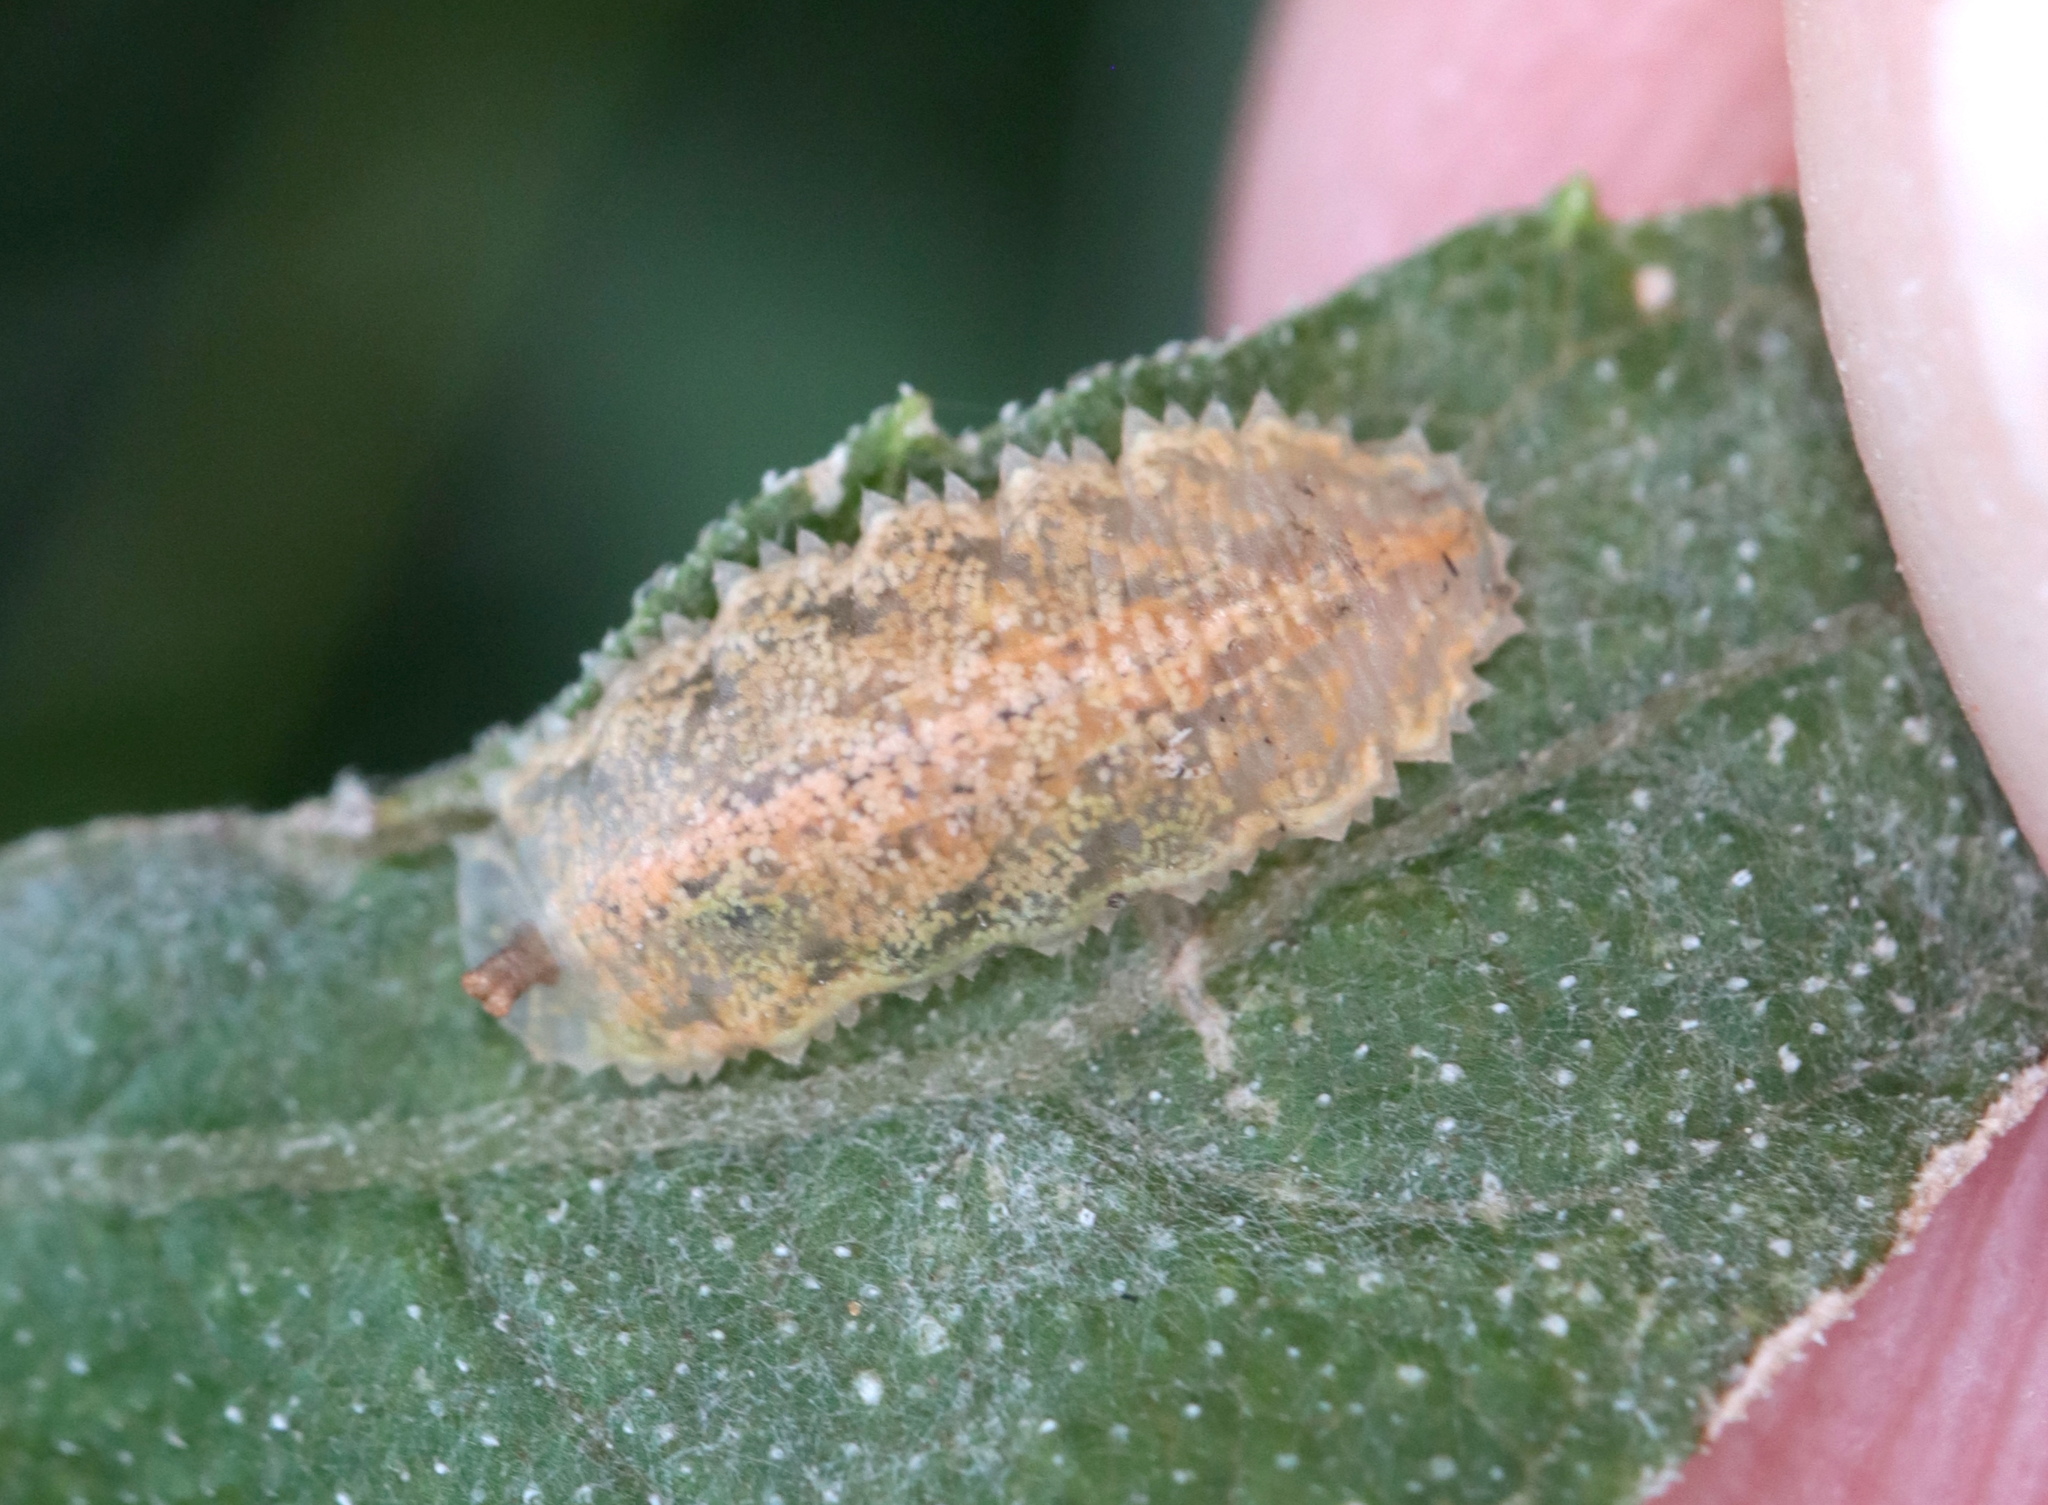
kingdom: Animalia
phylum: Arthropoda
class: Insecta
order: Diptera
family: Syrphidae
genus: Epistrophella
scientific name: Epistrophella emarginata
